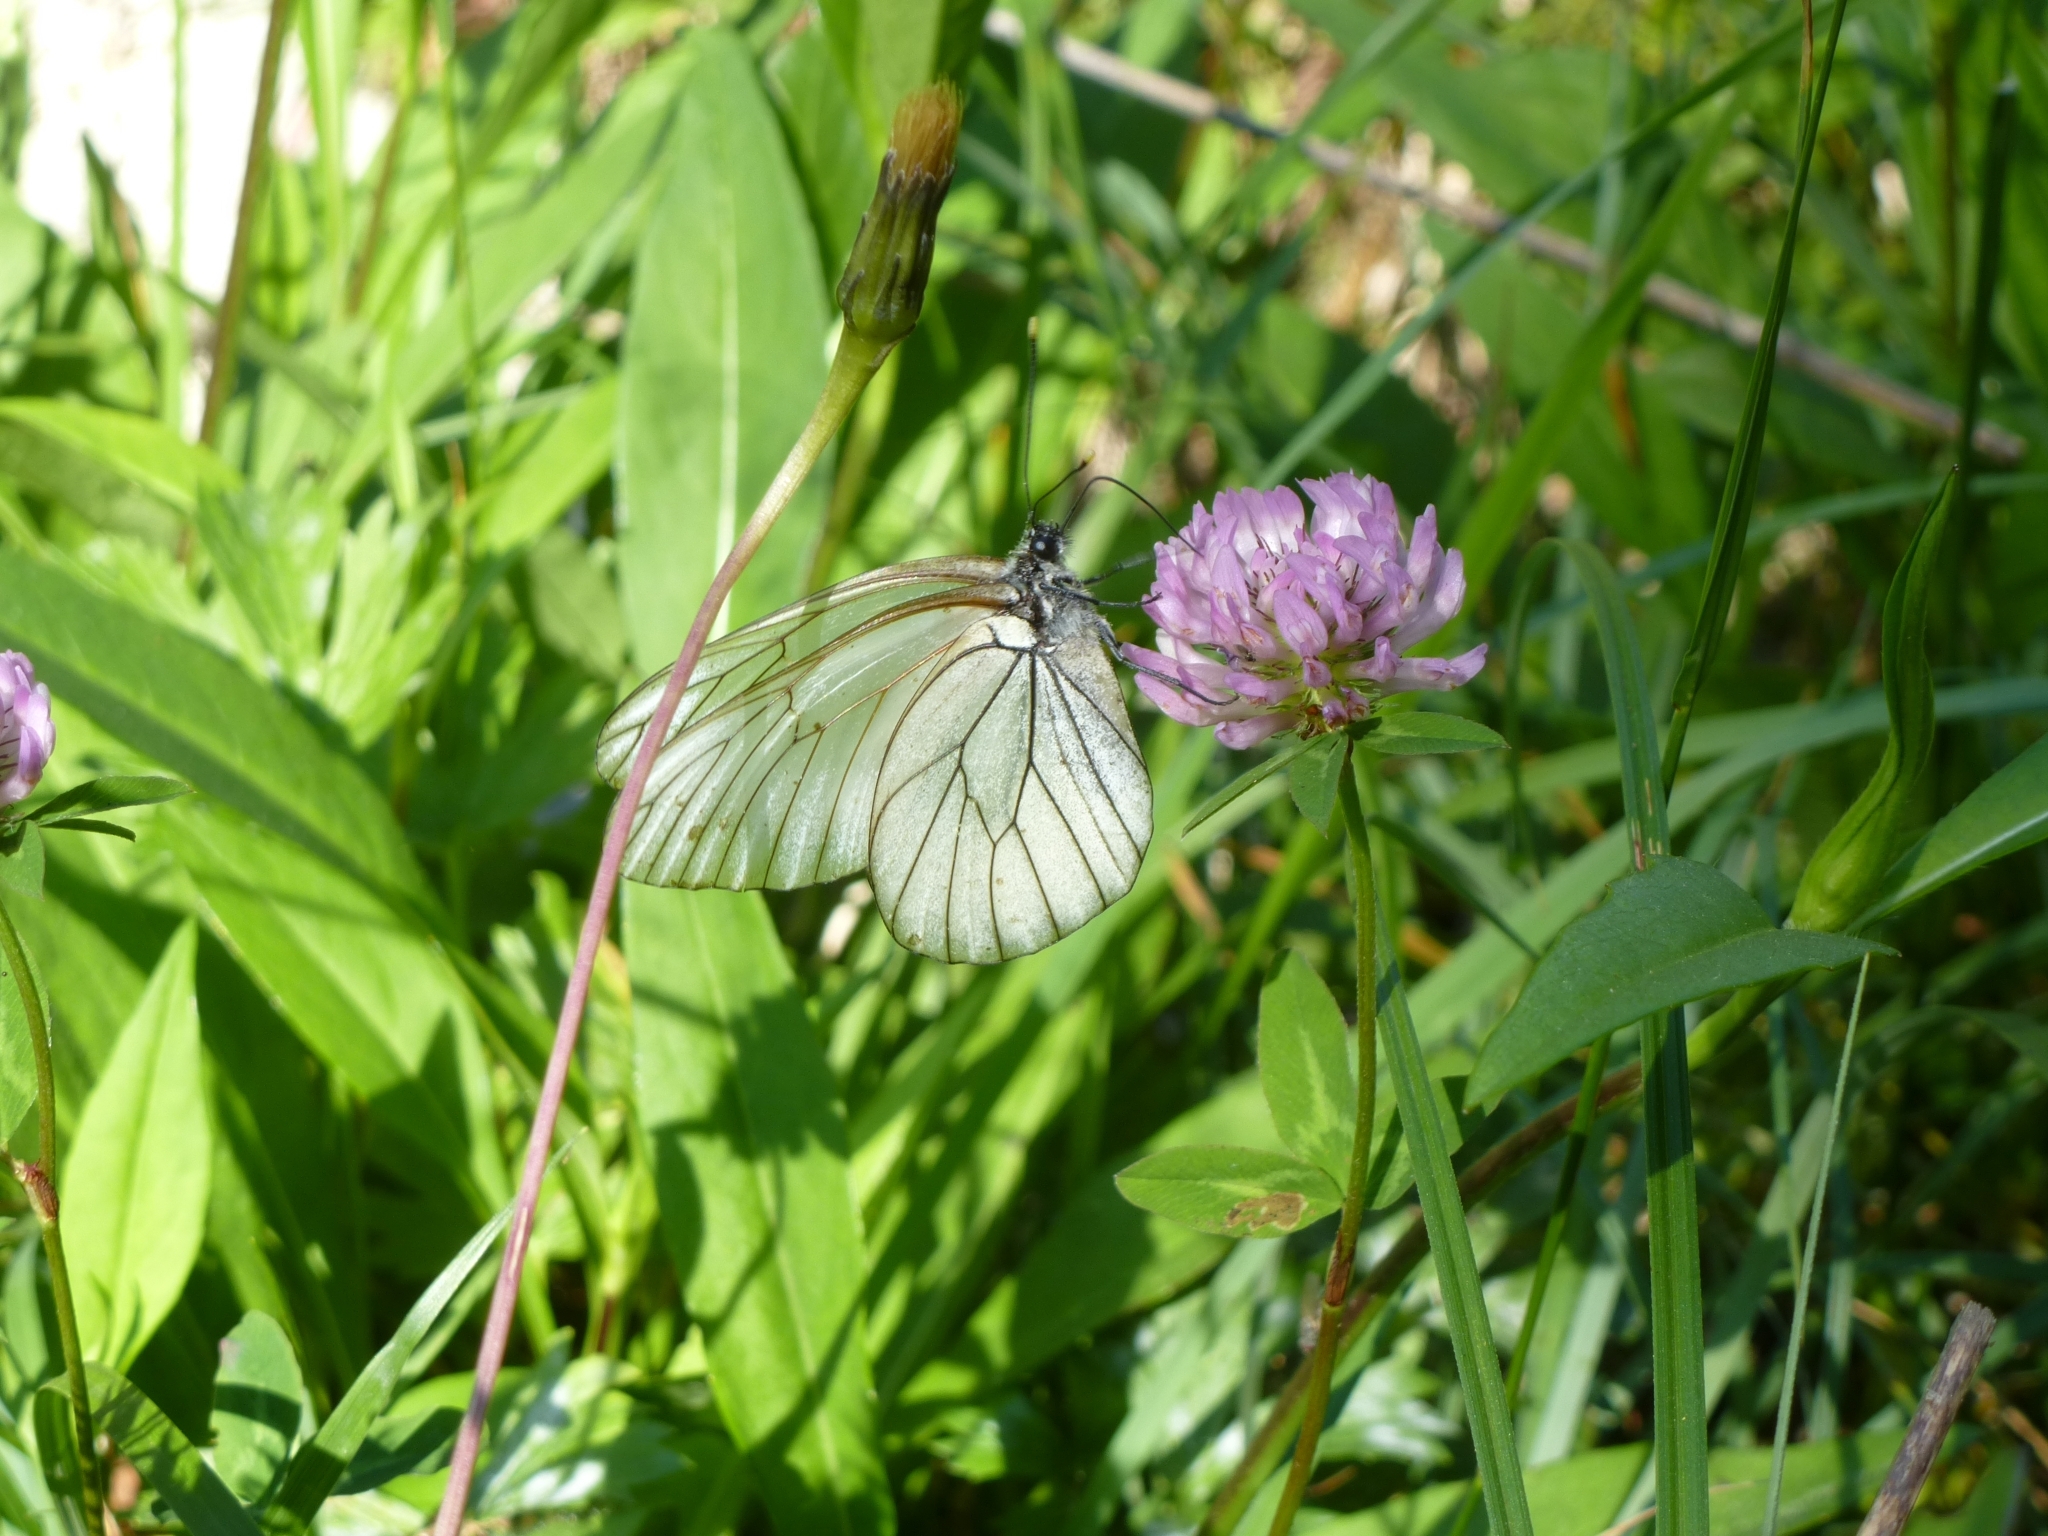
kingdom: Animalia
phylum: Arthropoda
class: Insecta
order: Lepidoptera
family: Pieridae
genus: Aporia
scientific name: Aporia crataegi
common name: Black-veined white
